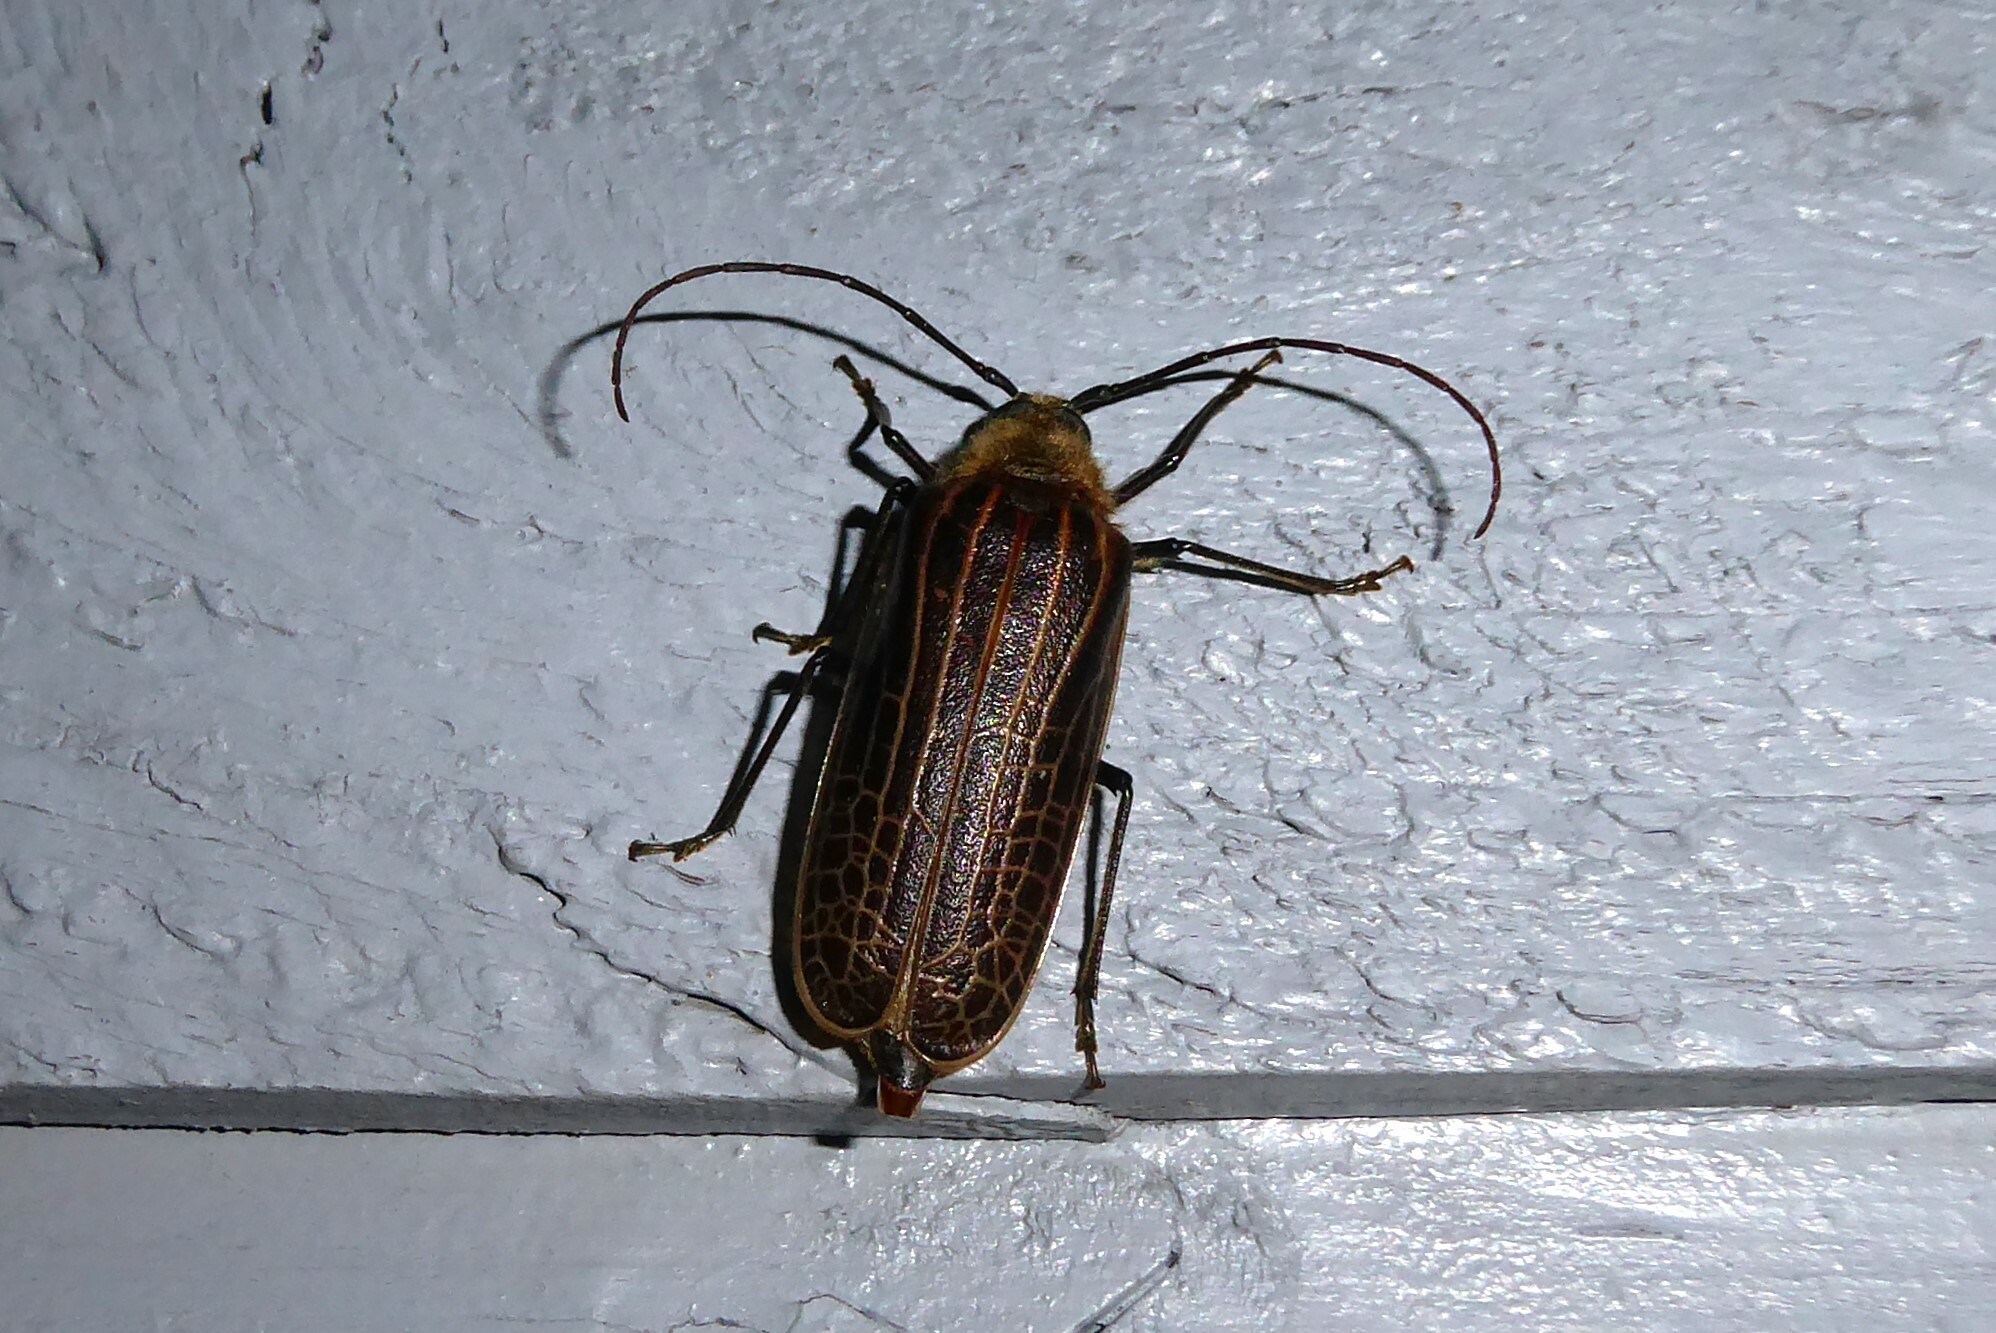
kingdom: Animalia
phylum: Arthropoda
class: Insecta
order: Coleoptera
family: Cerambycidae
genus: Prionoplus
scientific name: Prionoplus reticularis
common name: Huhu beetle
